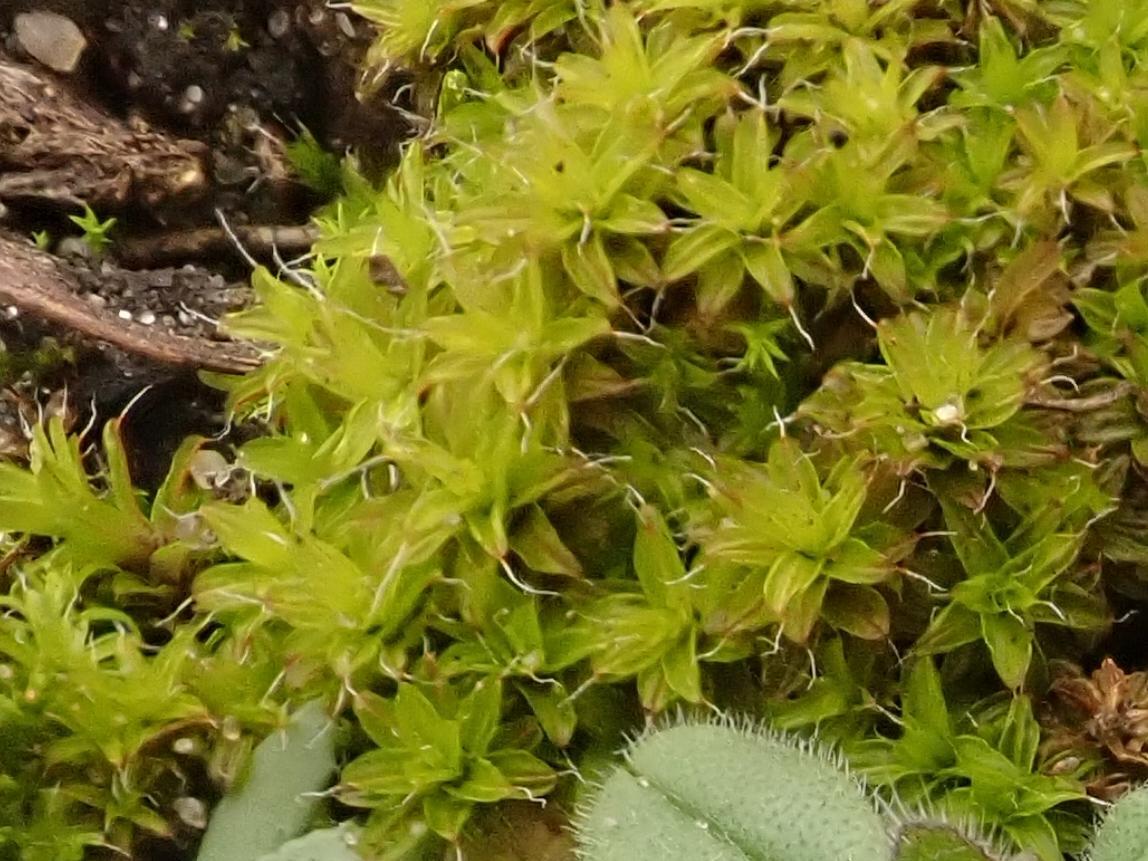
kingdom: Plantae
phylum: Bryophyta
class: Bryopsida
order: Pottiales
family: Pottiaceae
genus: Syntrichia
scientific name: Syntrichia ruralis
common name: Sidewalk screw moss
